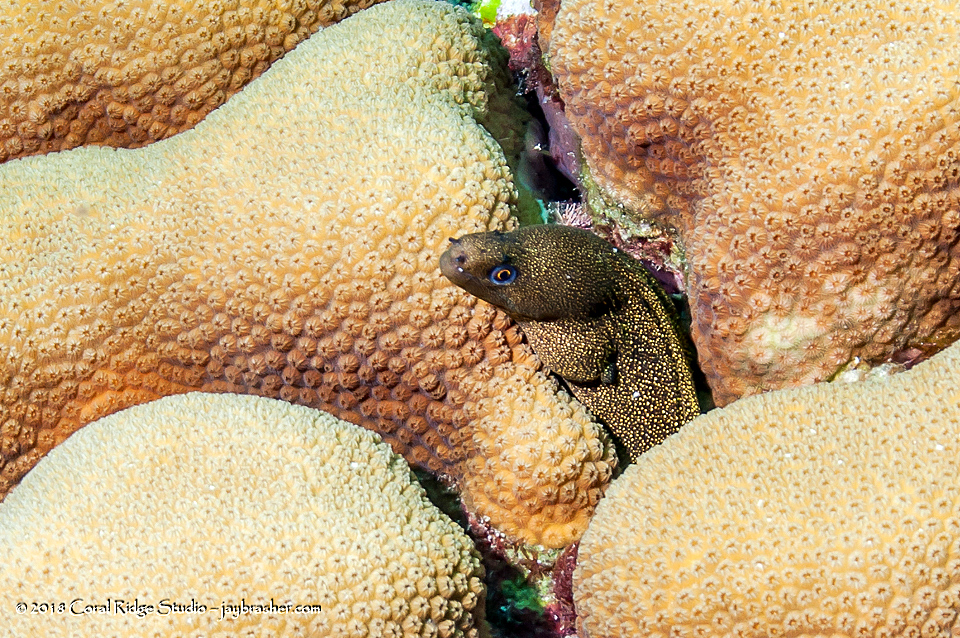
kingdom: Animalia
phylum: Chordata
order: Anguilliformes
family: Muraenidae
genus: Gymnothorax
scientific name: Gymnothorax miliaris
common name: Goldentail moray
